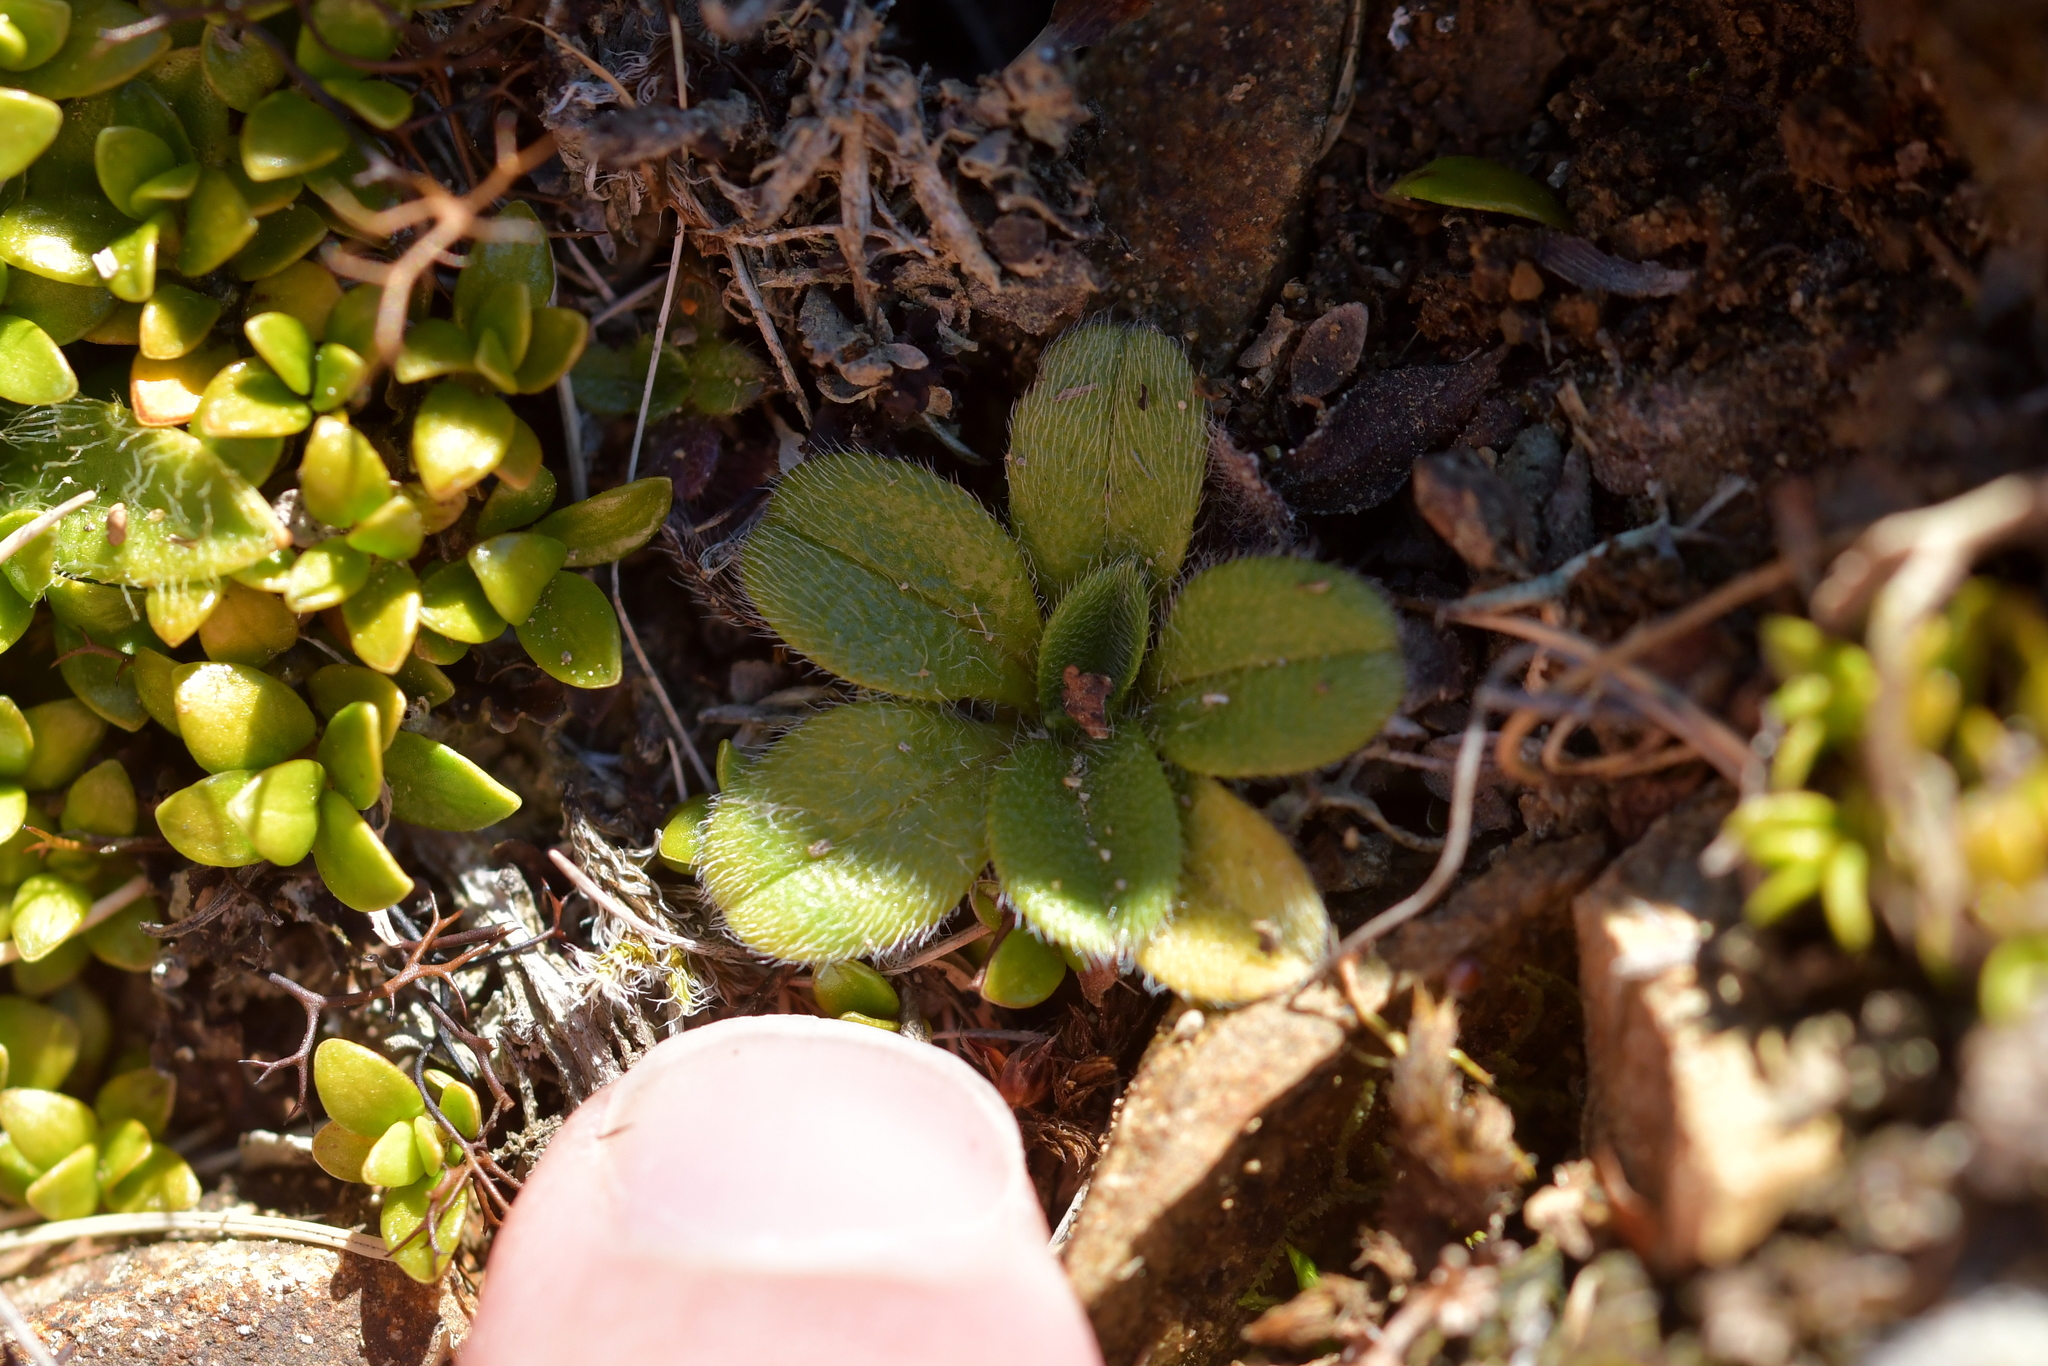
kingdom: Plantae
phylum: Tracheophyta
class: Magnoliopsida
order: Boraginales
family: Boraginaceae
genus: Myosotis
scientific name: Myosotis antarctica
